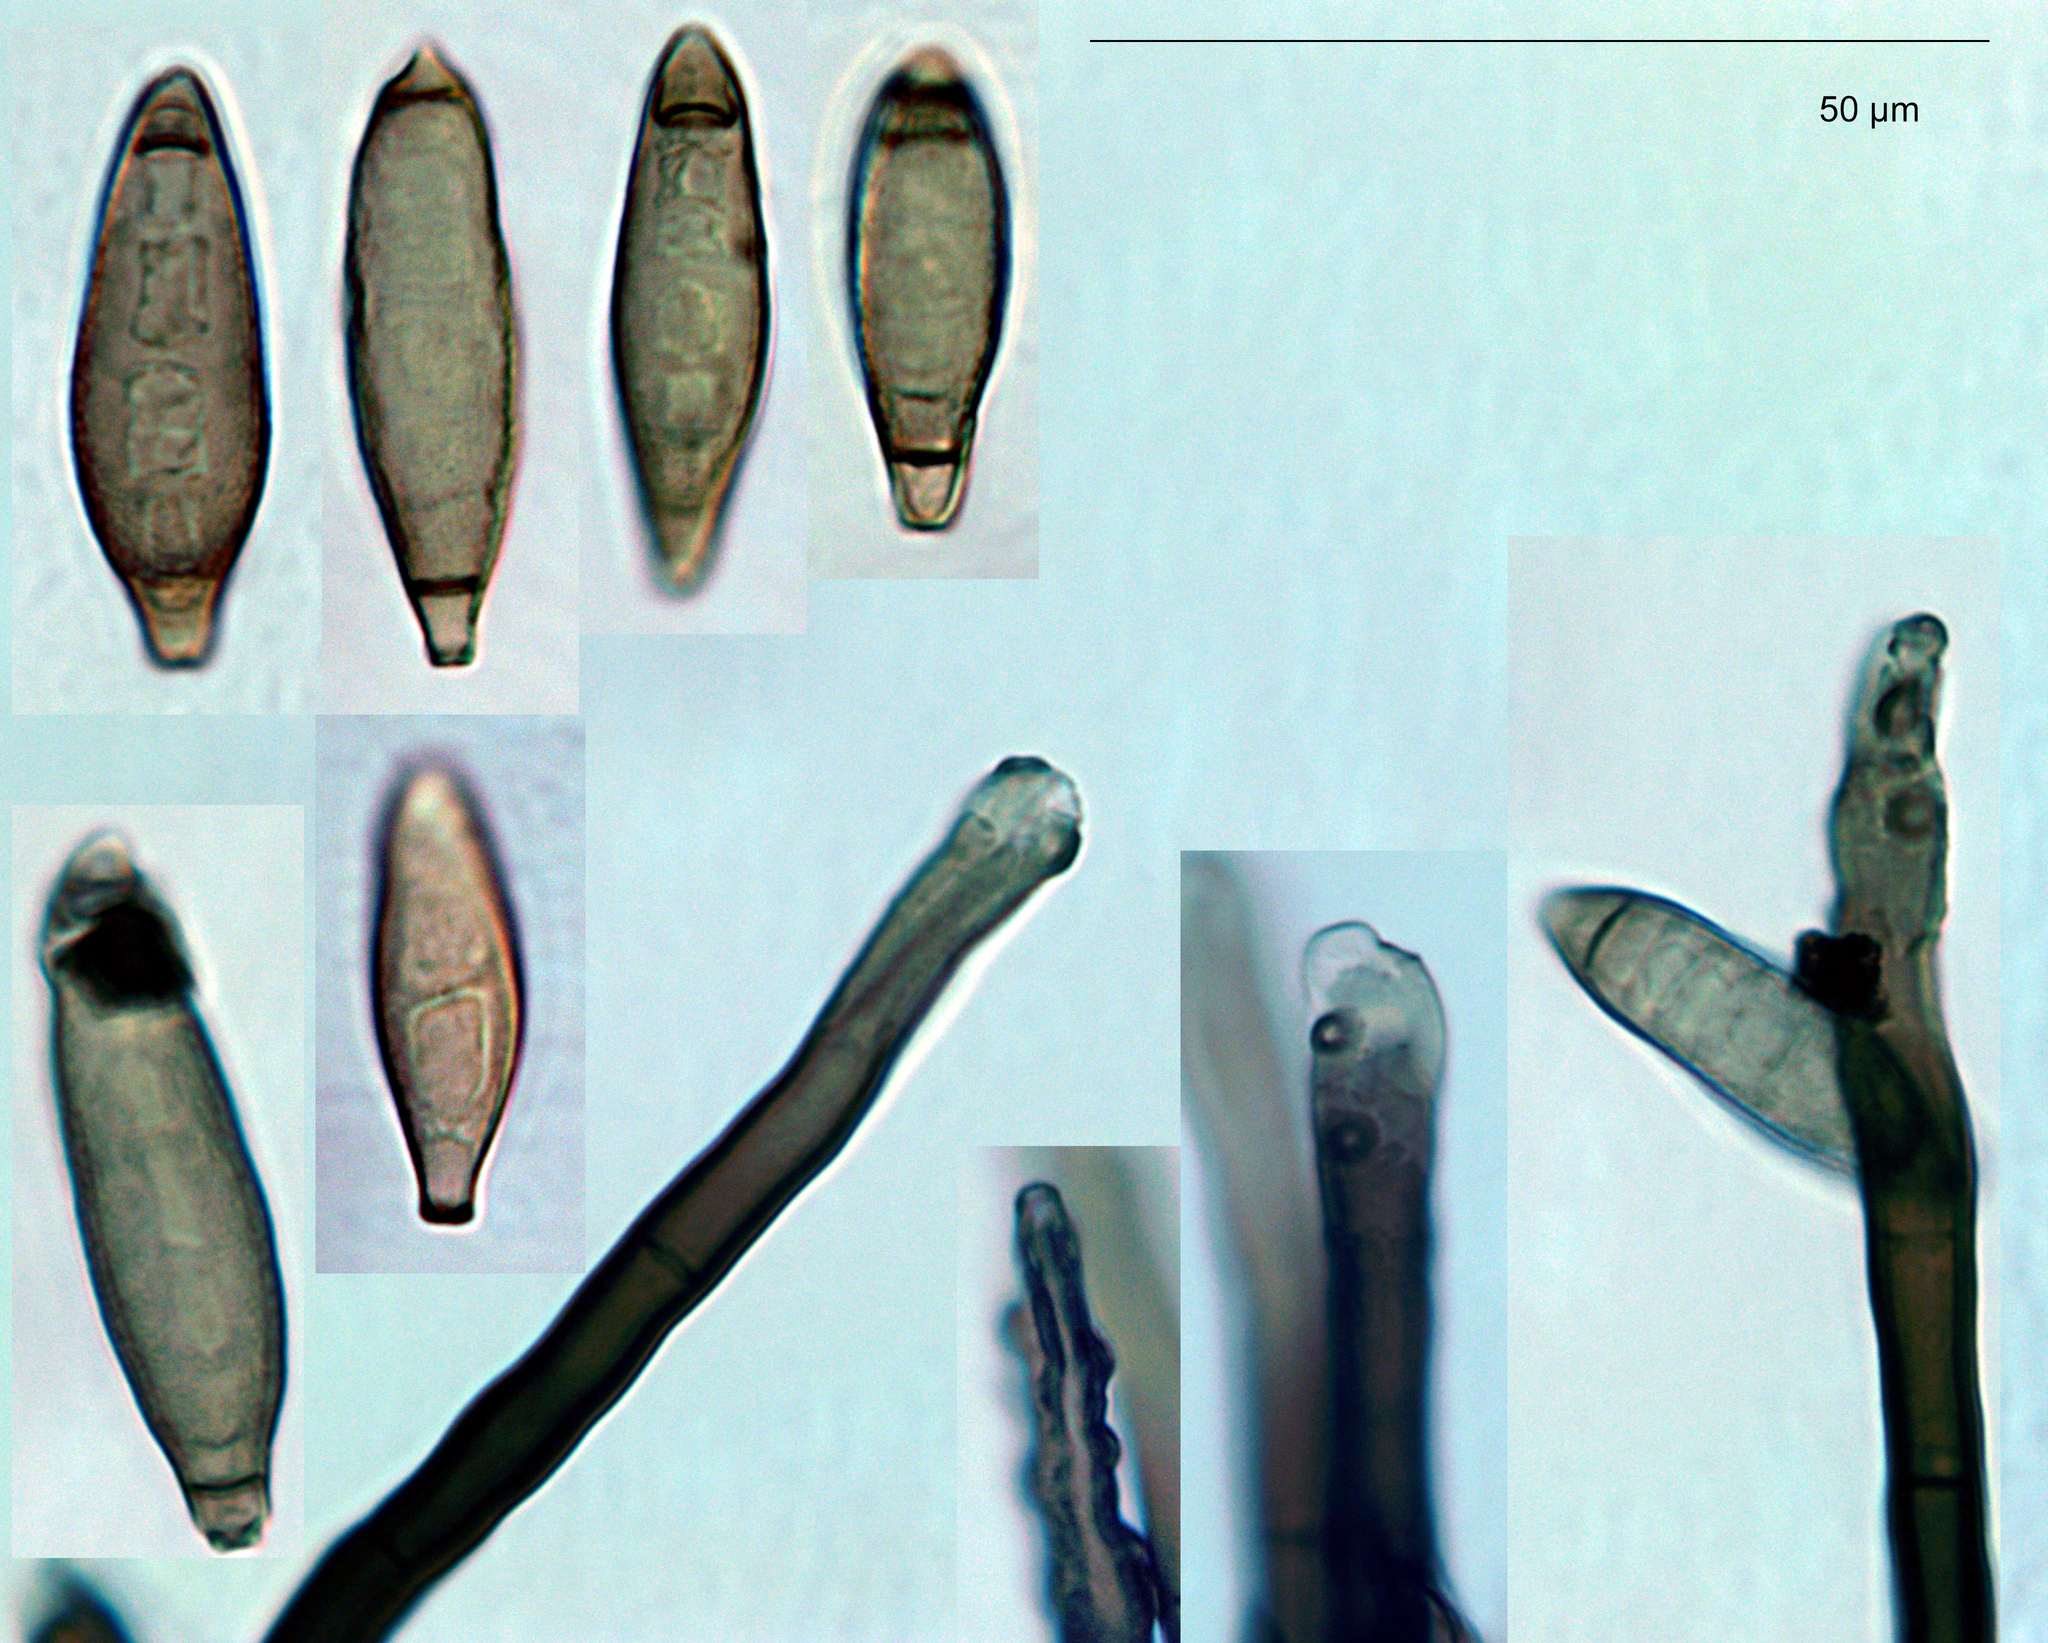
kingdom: Fungi
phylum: Ascomycota
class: Leotiomycetes
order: Helotiales
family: Helotiaceae
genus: Strossmayeria
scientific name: Strossmayeria bakeriana
